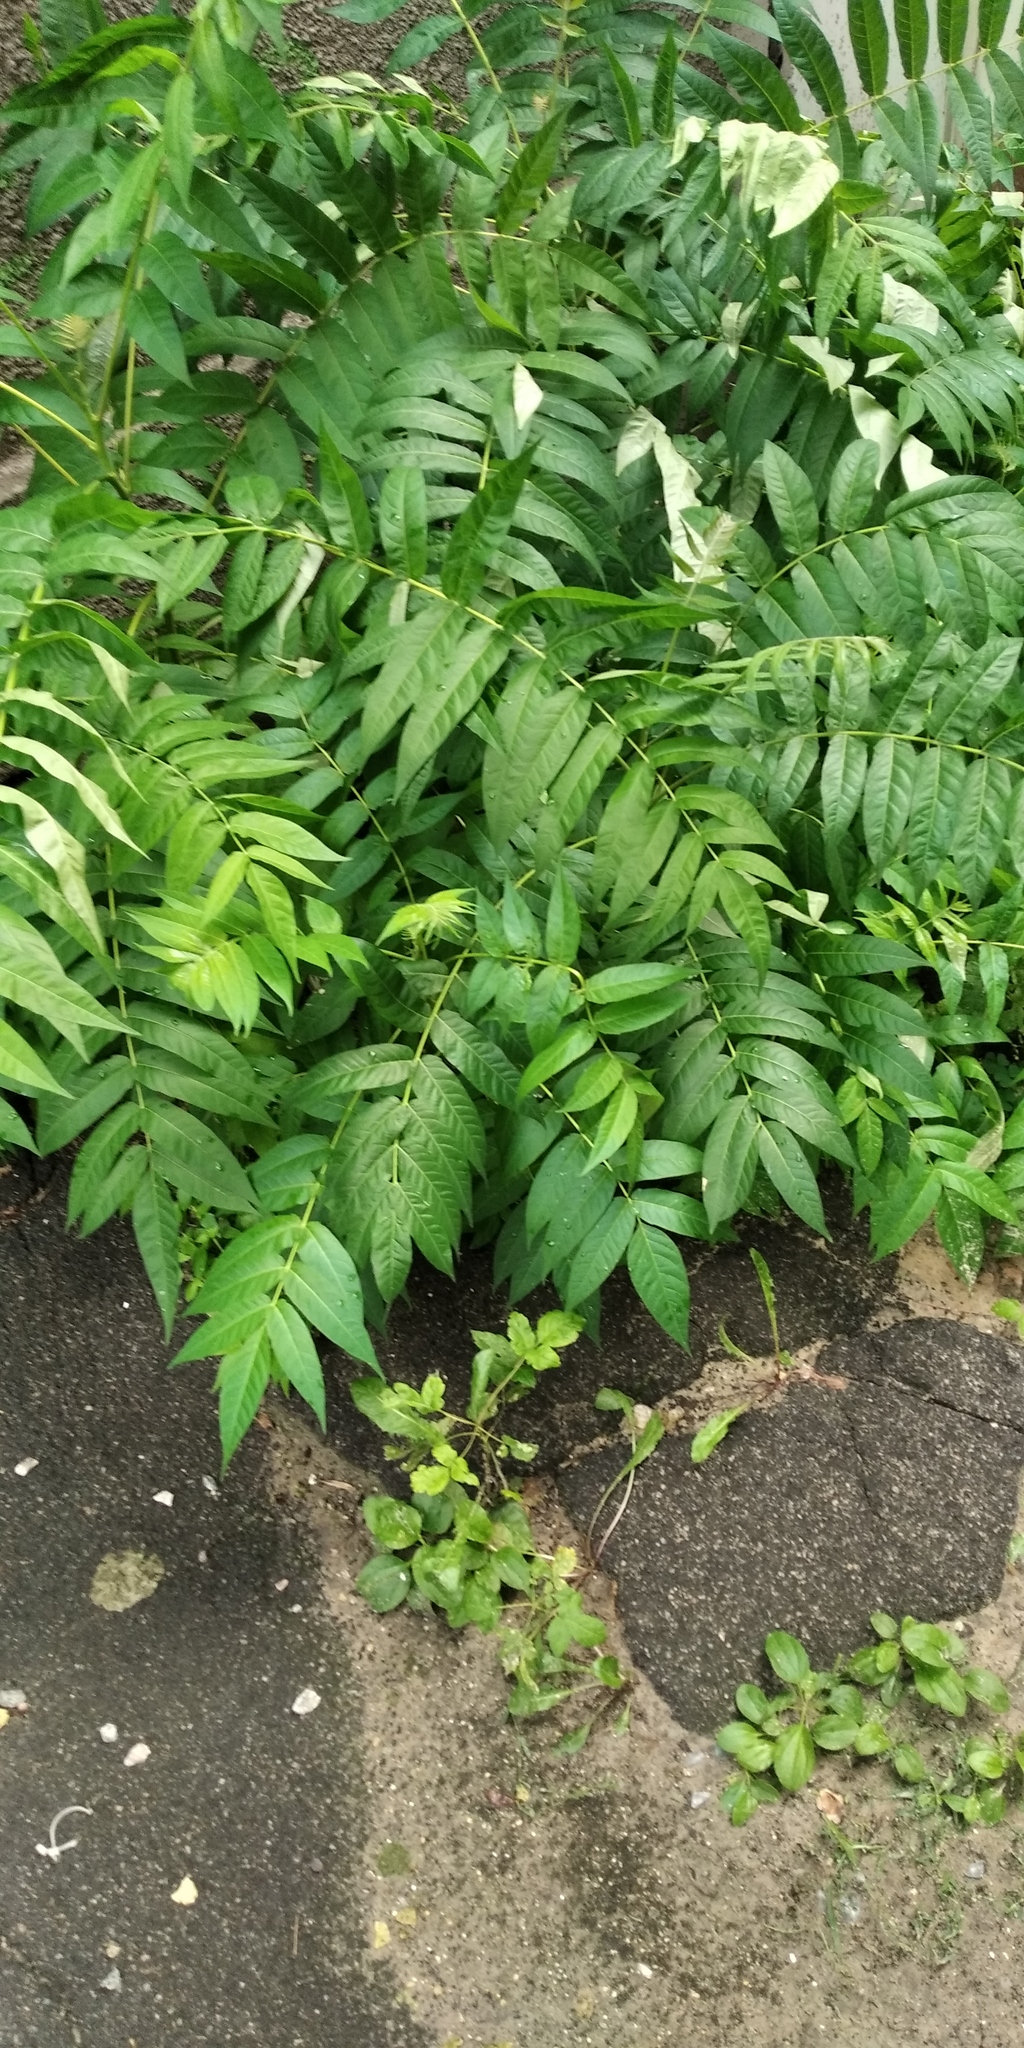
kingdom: Plantae
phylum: Tracheophyta
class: Magnoliopsida
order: Sapindales
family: Simaroubaceae
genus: Ailanthus
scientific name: Ailanthus altissima
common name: Tree-of-heaven
